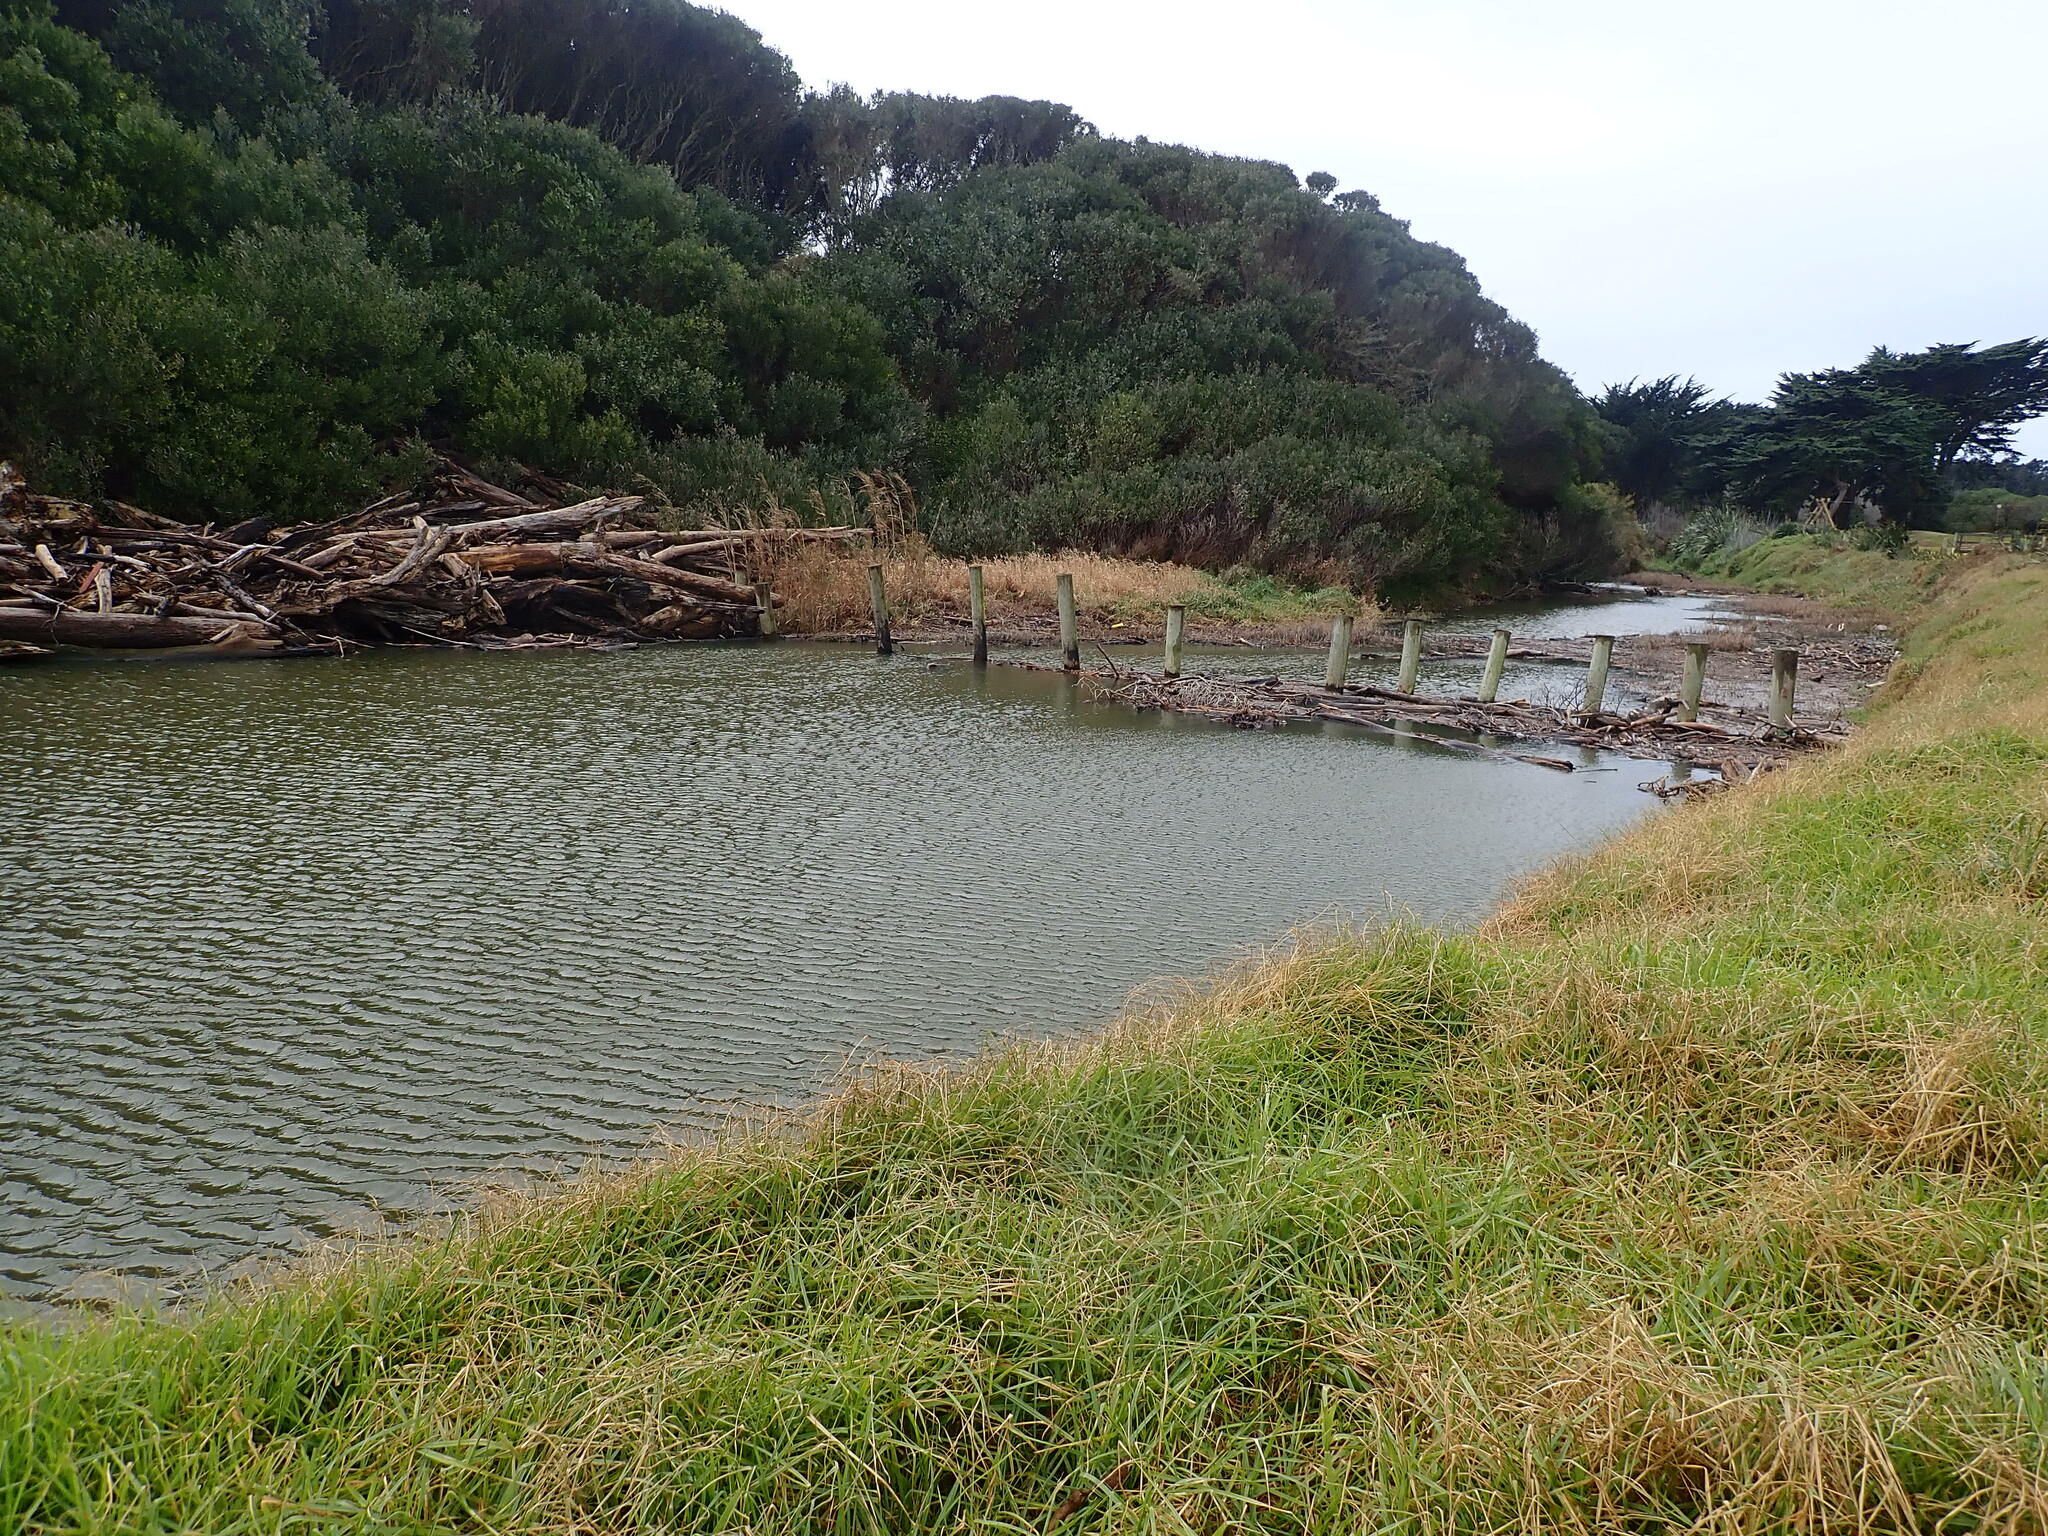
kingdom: Plantae
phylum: Tracheophyta
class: Liliopsida
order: Poales
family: Poaceae
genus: Phragmites
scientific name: Phragmites karka
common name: Tropical reed
